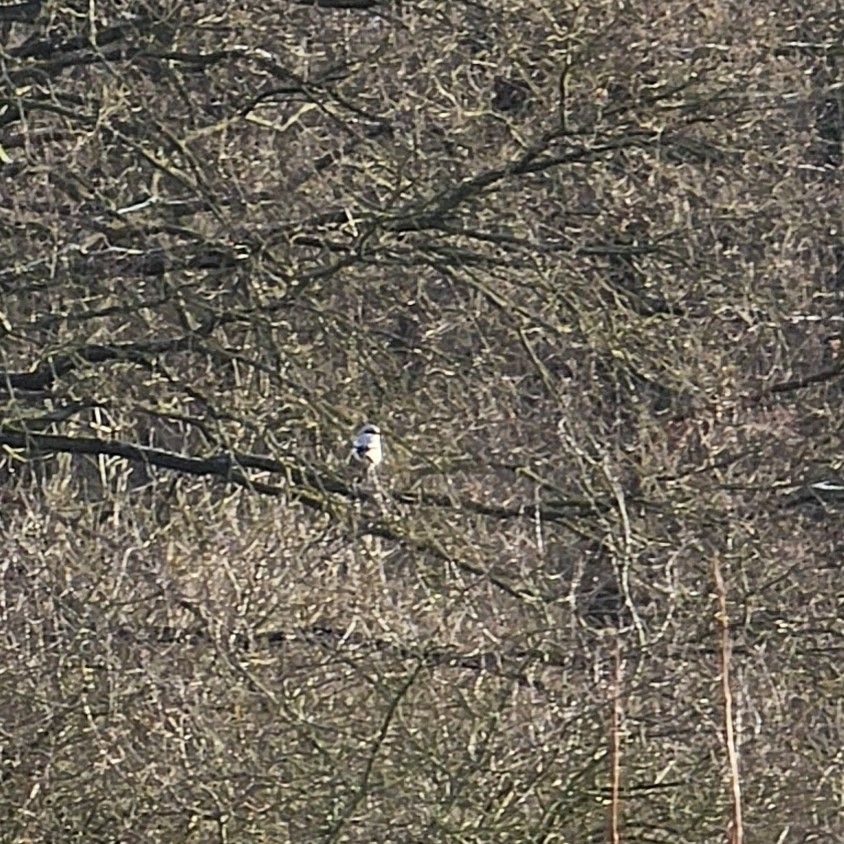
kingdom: Animalia
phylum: Chordata
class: Aves
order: Passeriformes
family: Laniidae
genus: Lanius
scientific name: Lanius excubitor
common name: Great grey shrike
